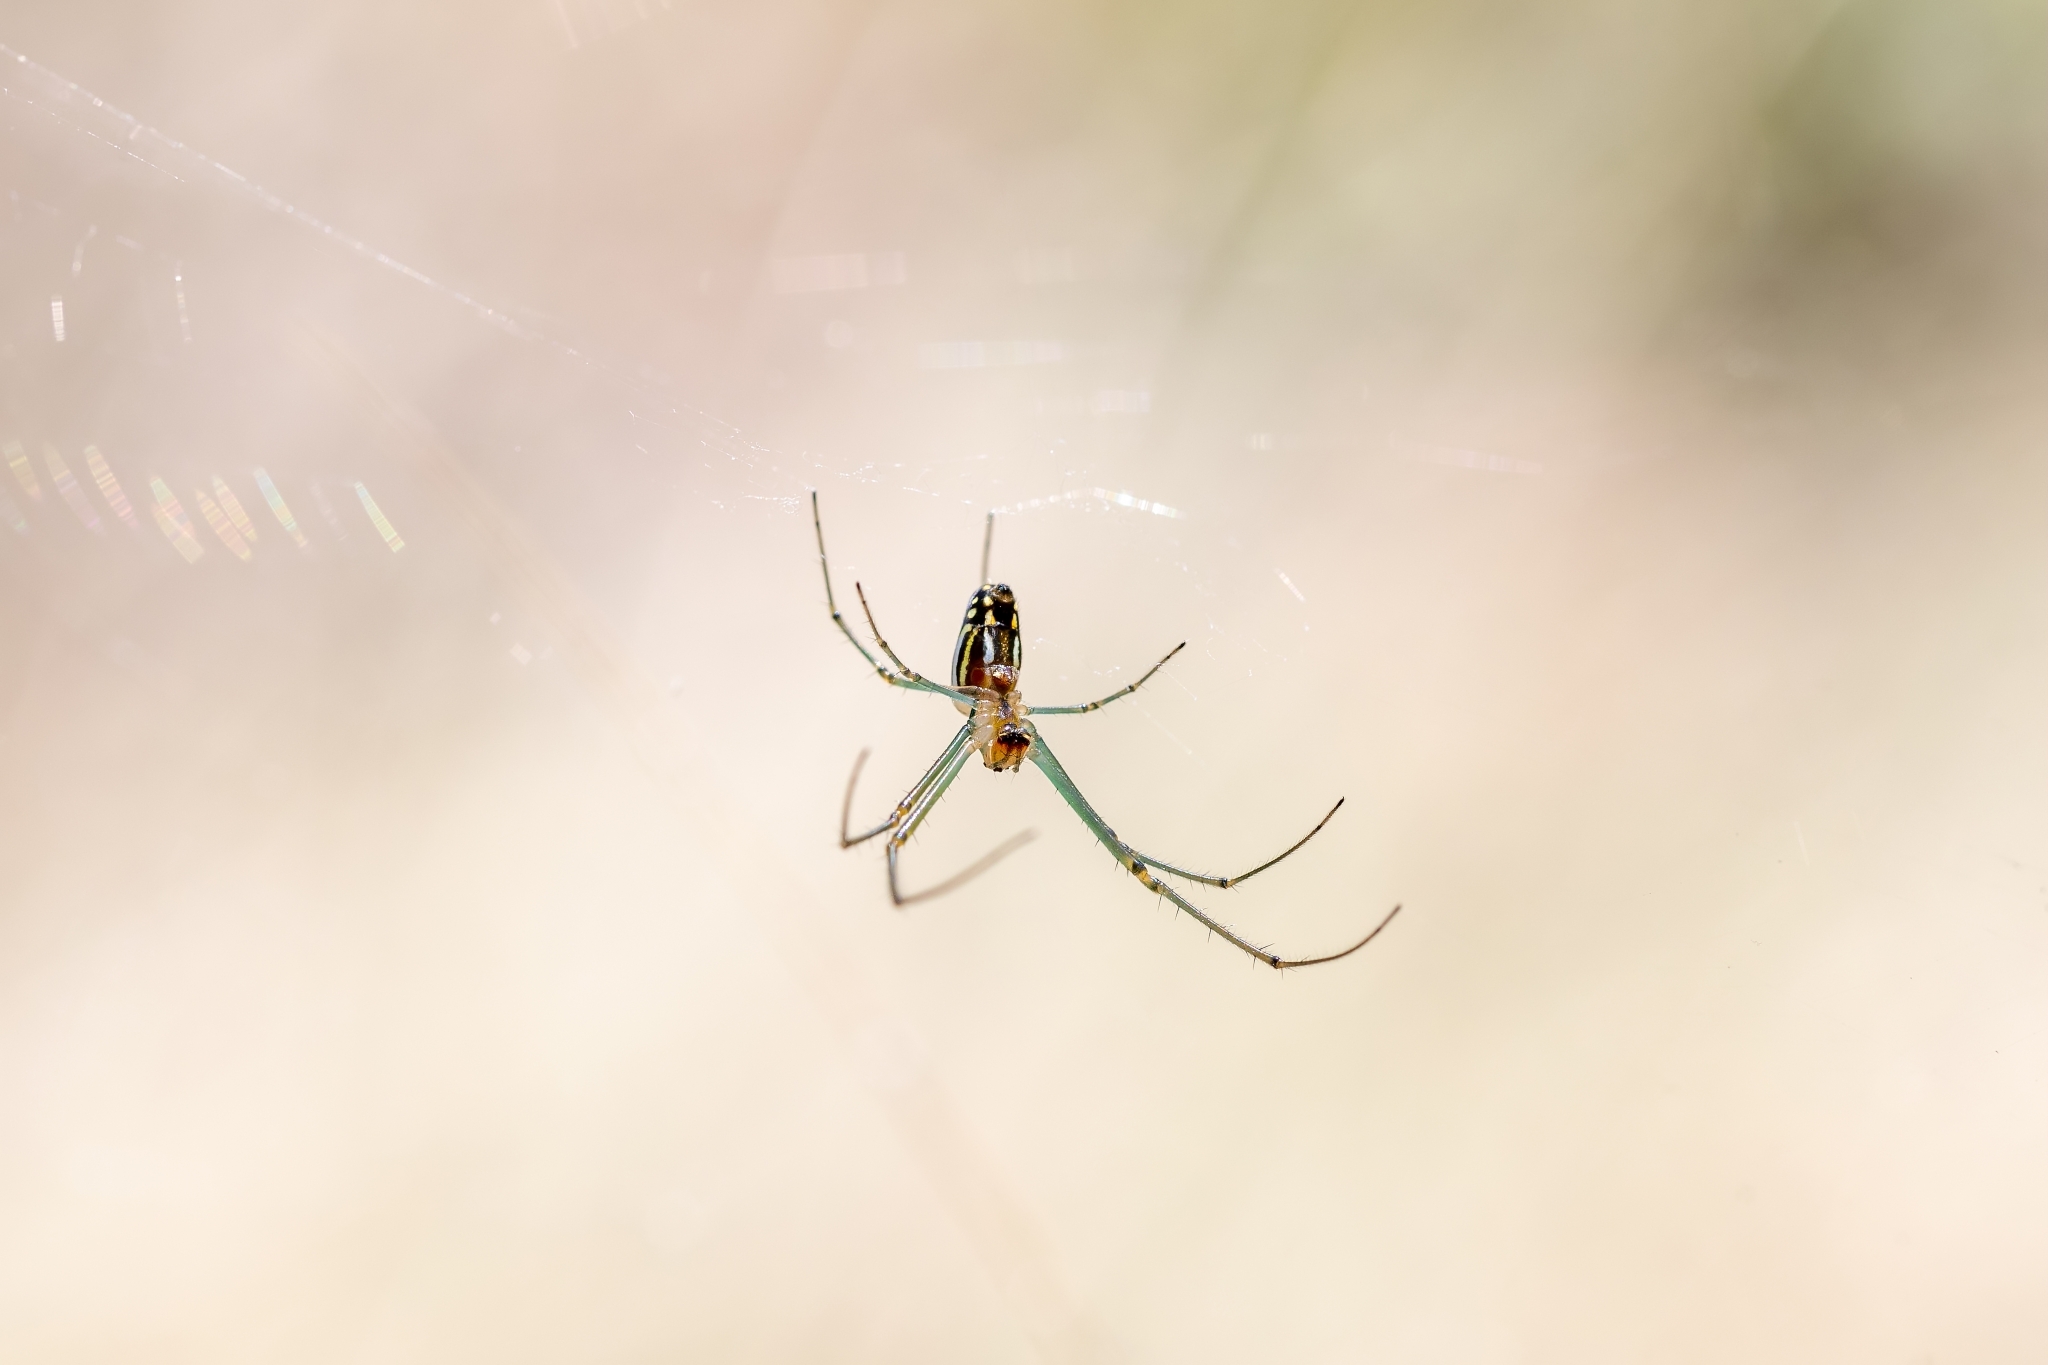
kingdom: Animalia
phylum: Arthropoda
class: Arachnida
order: Araneae
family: Tetragnathidae
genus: Leucauge
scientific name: Leucauge argyra
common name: Longjawed orb weavers
